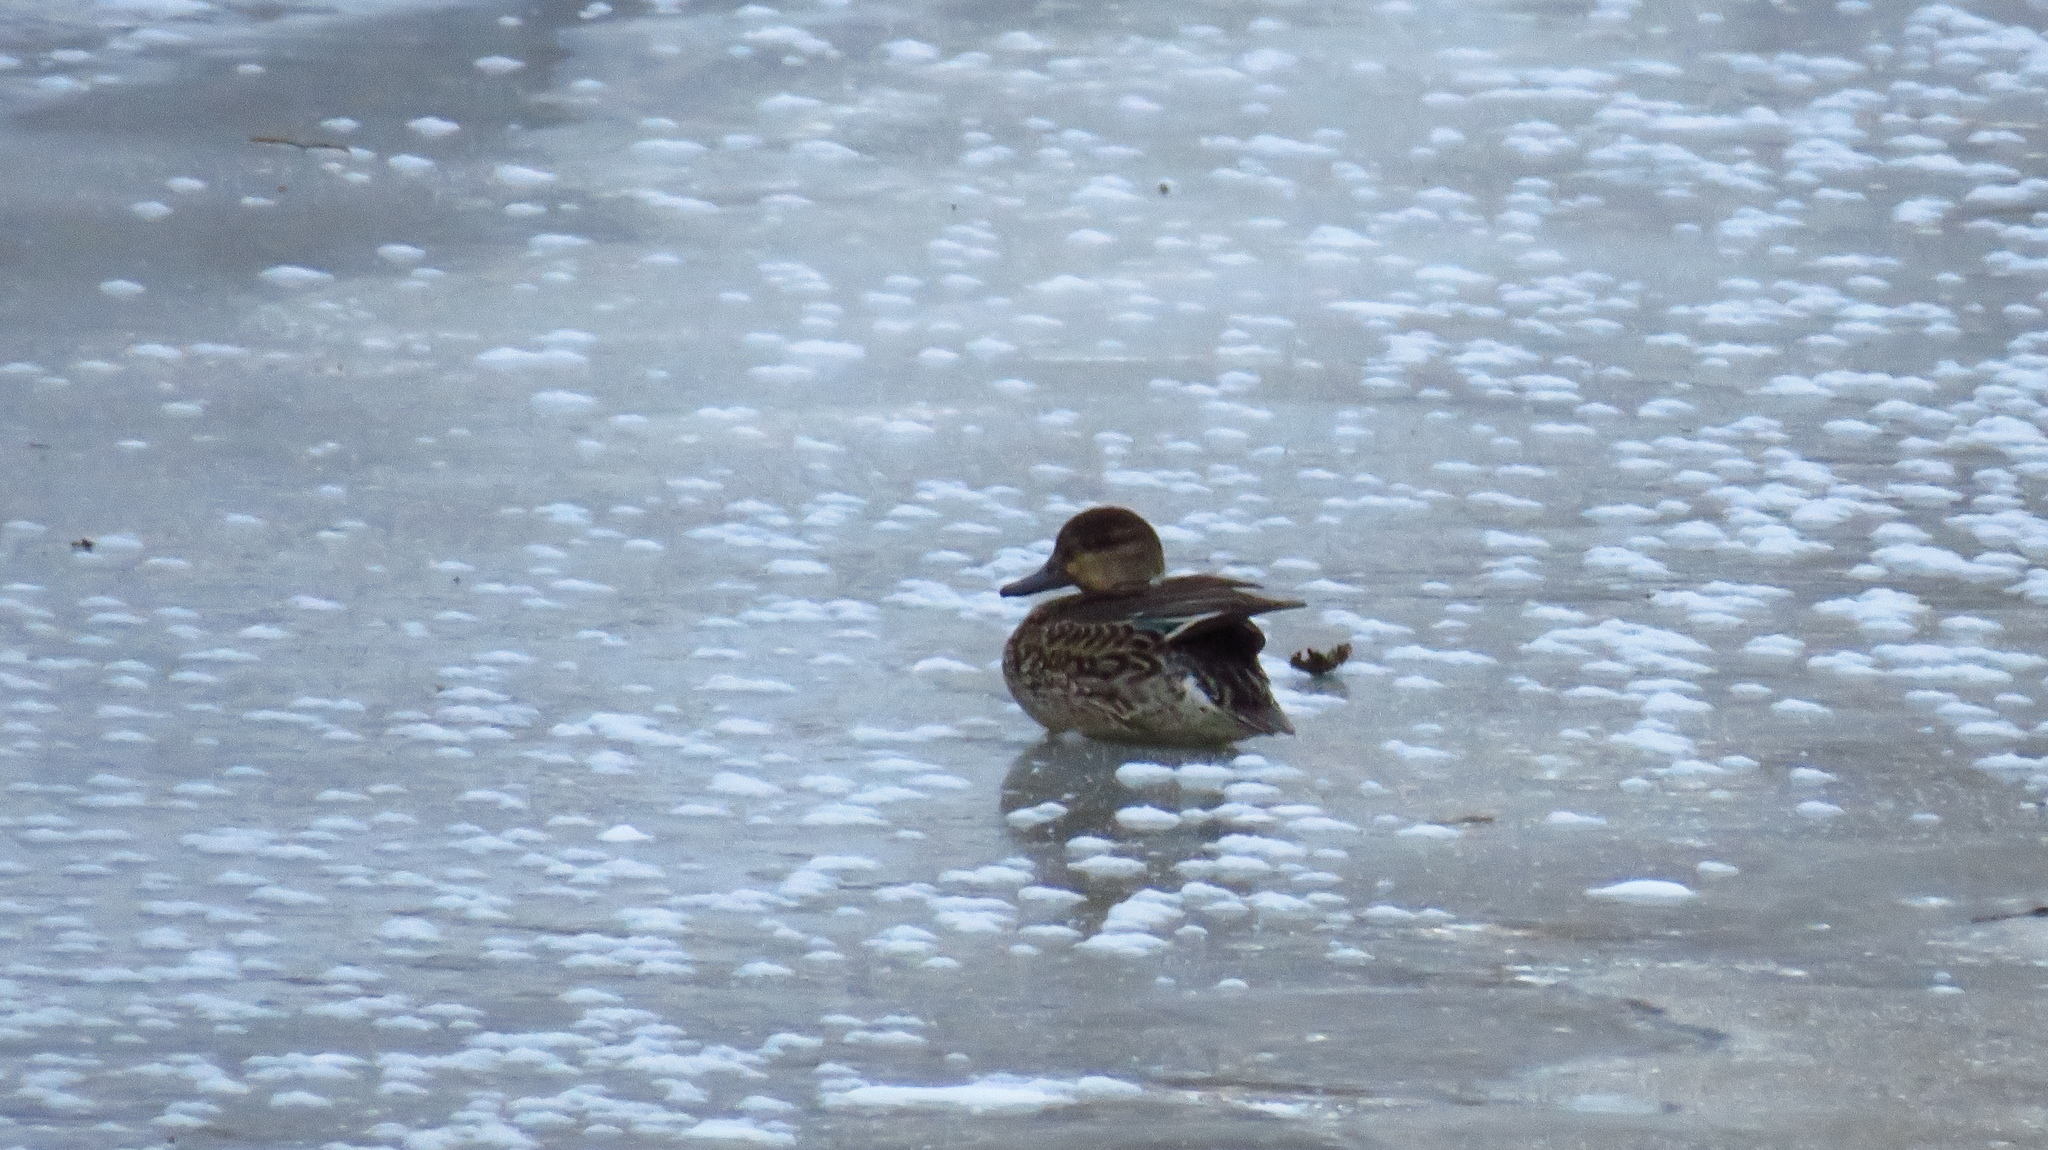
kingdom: Animalia
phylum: Chordata
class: Aves
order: Anseriformes
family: Anatidae
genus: Anas
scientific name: Anas crecca
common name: Eurasian teal
